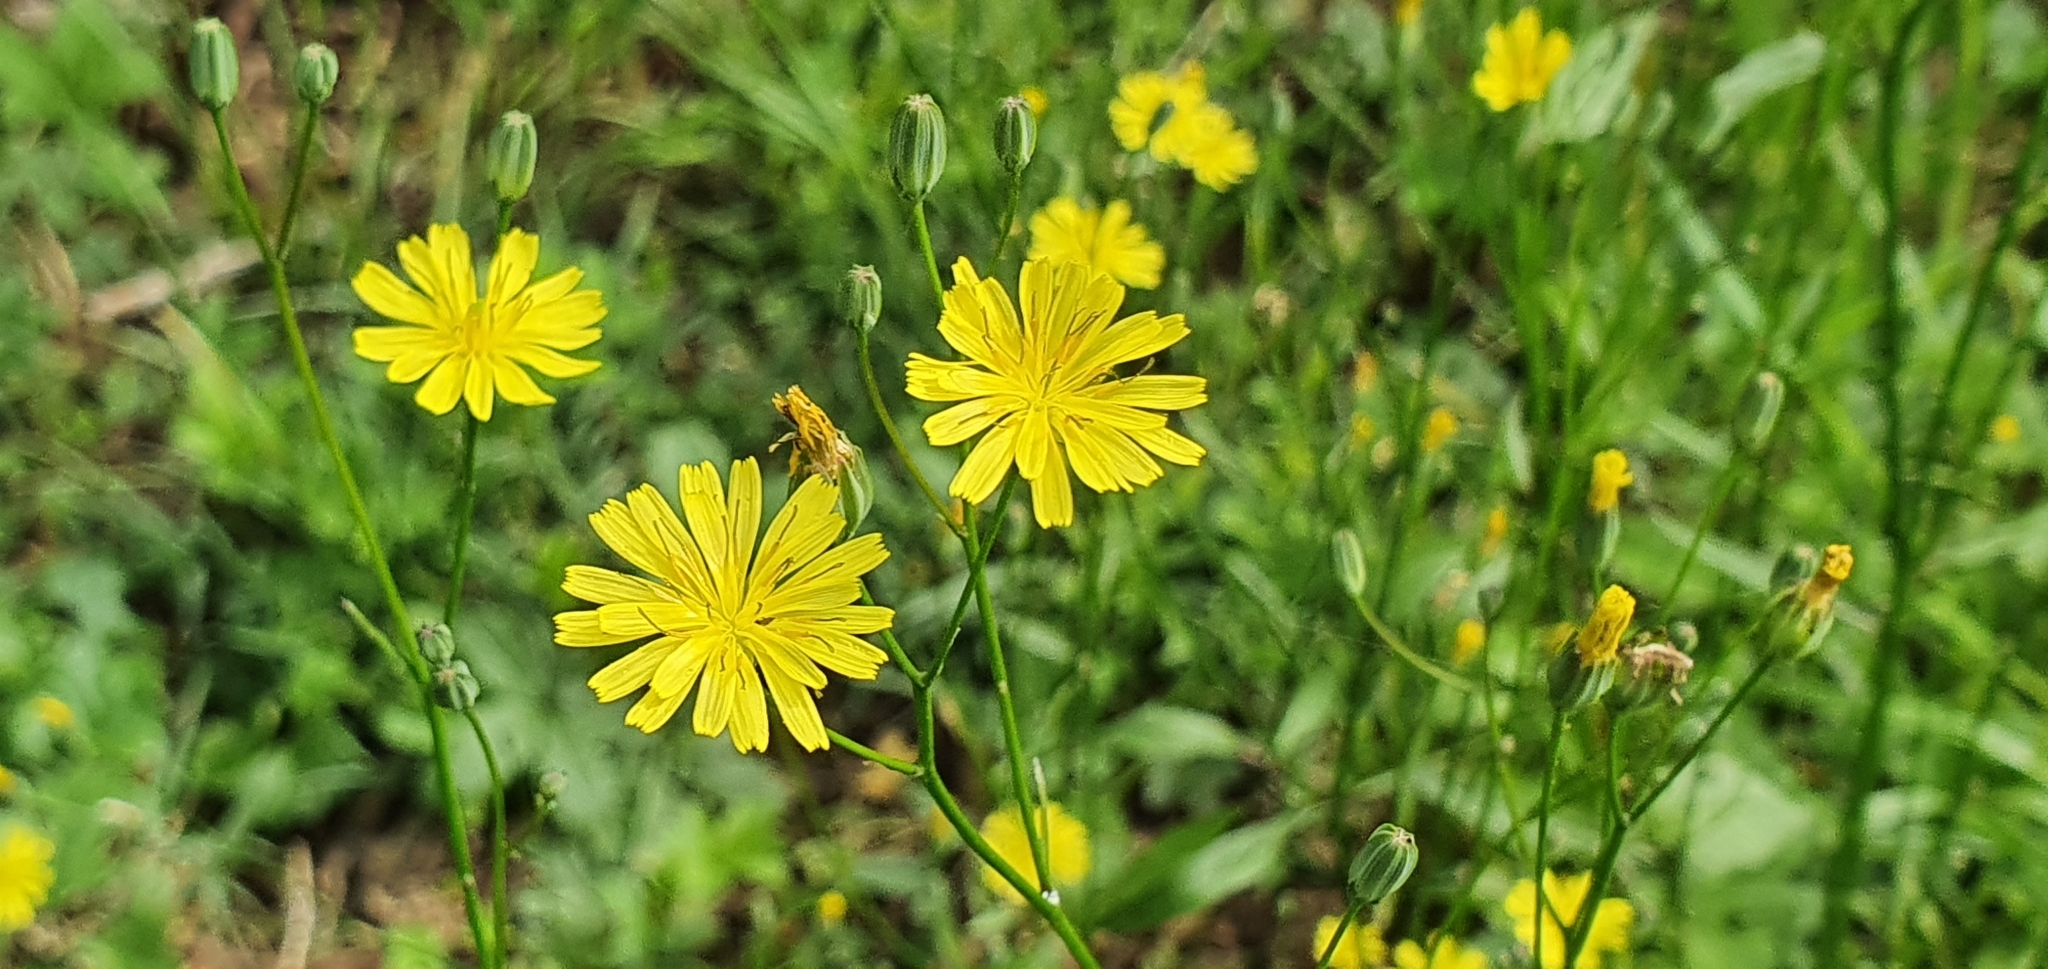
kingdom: Plantae
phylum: Tracheophyta
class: Magnoliopsida
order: Asterales
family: Asteraceae
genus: Lapsana
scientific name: Lapsana communis
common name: Nipplewort
